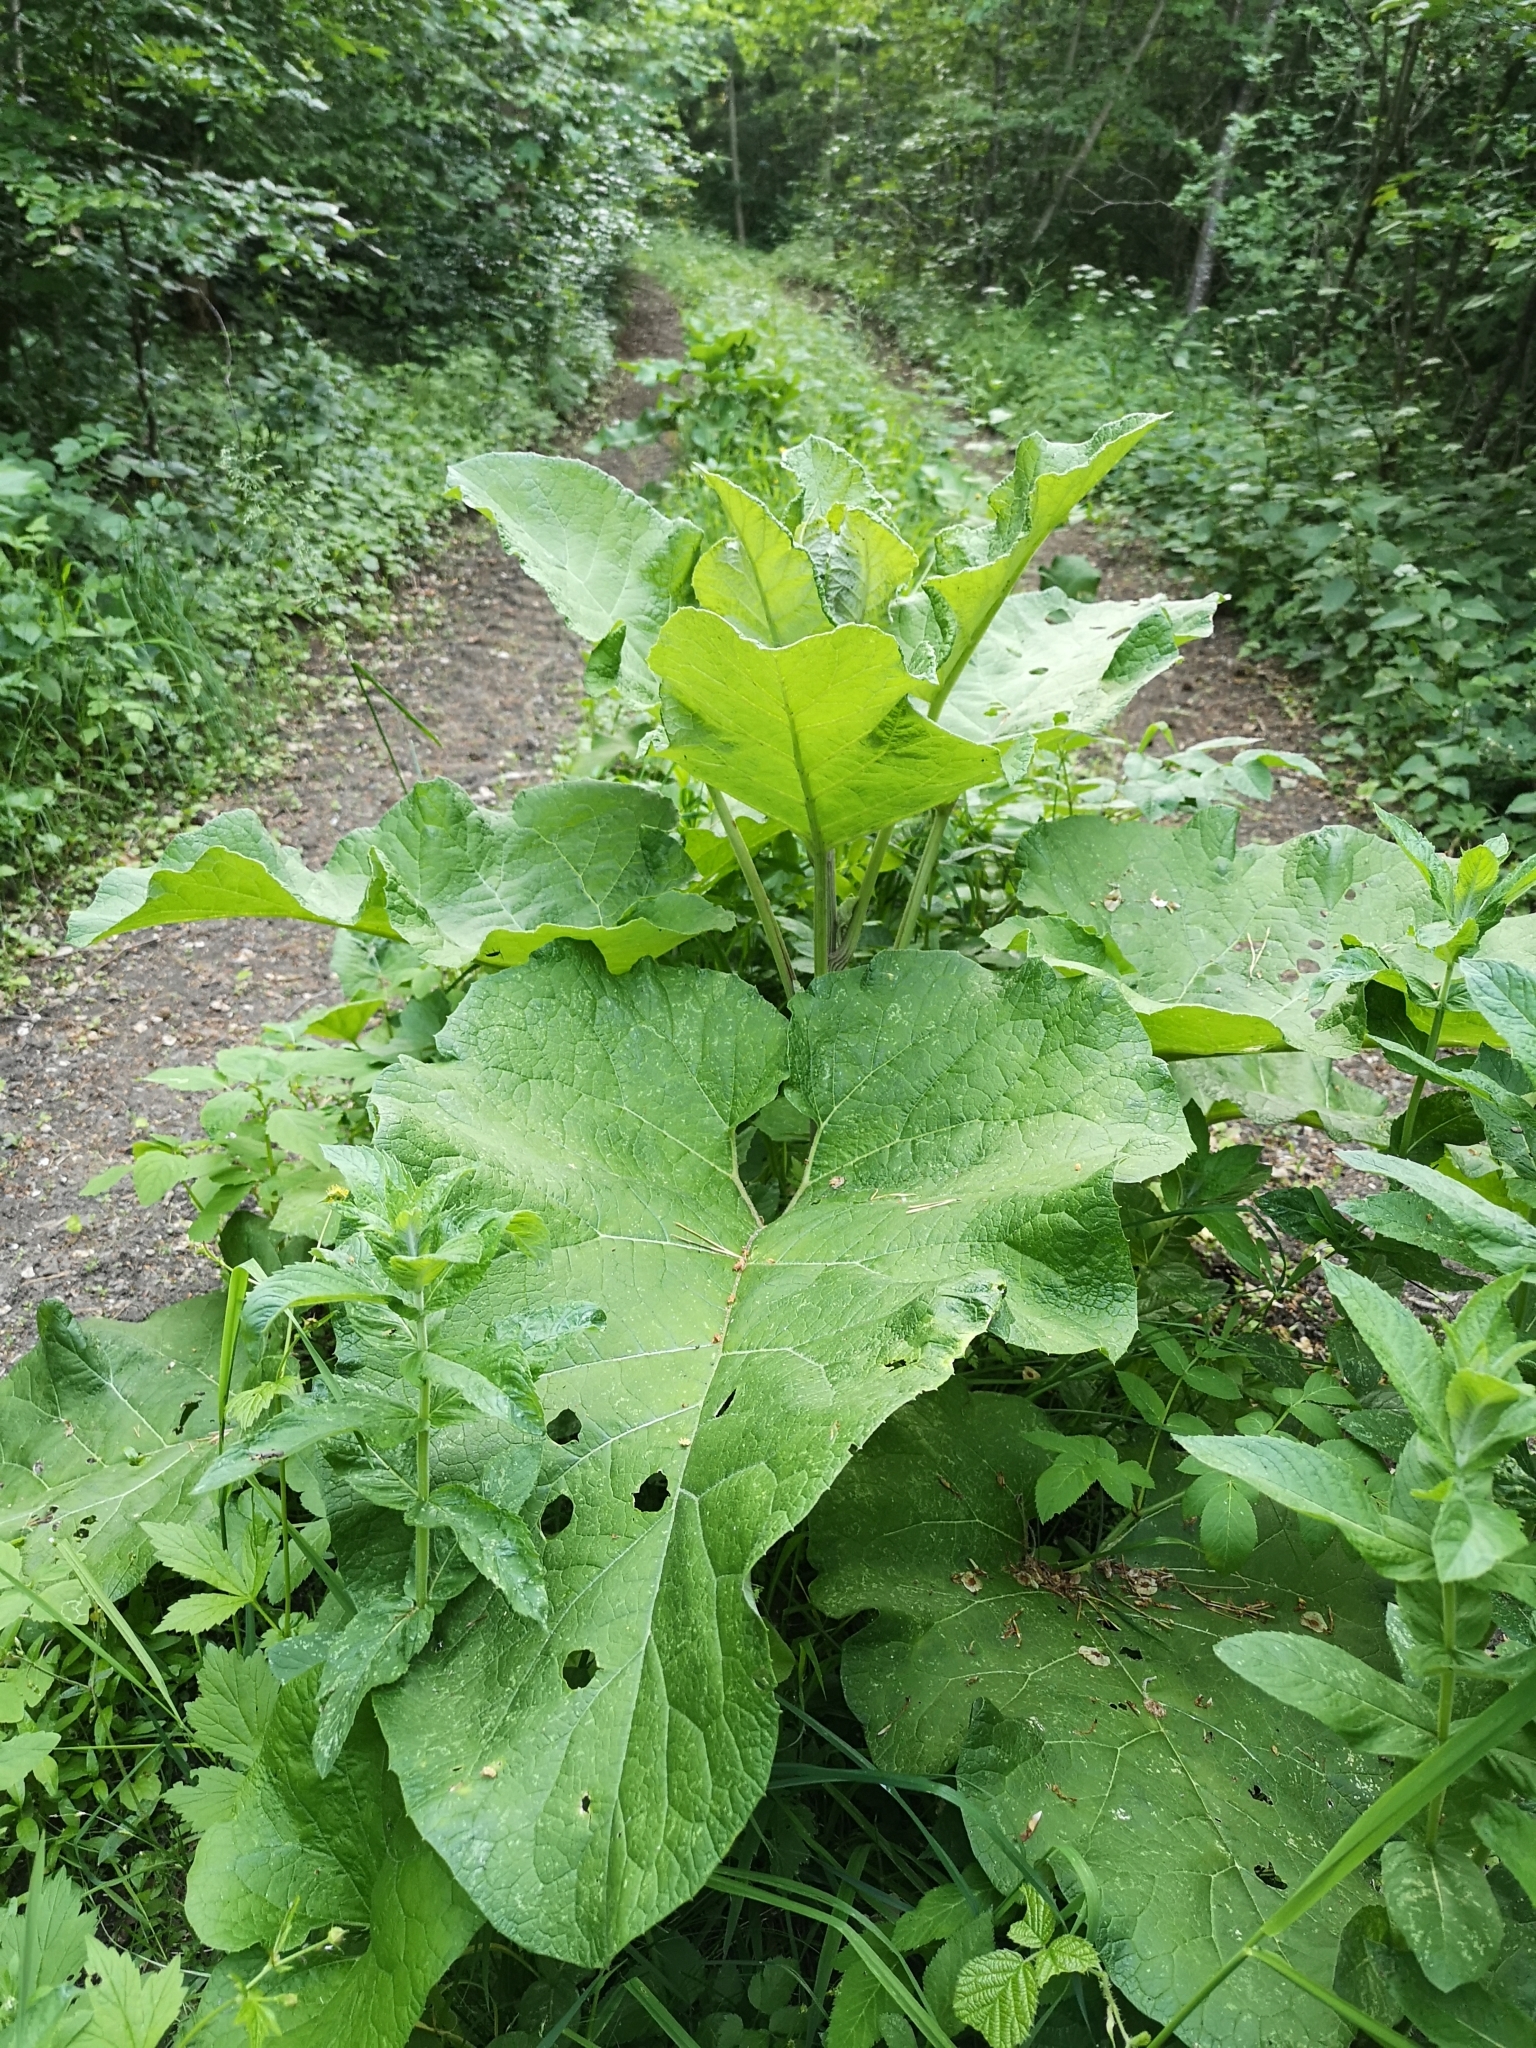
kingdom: Plantae
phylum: Tracheophyta
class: Magnoliopsida
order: Asterales
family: Asteraceae
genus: Arctium
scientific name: Arctium lappa
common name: Greater burdock
